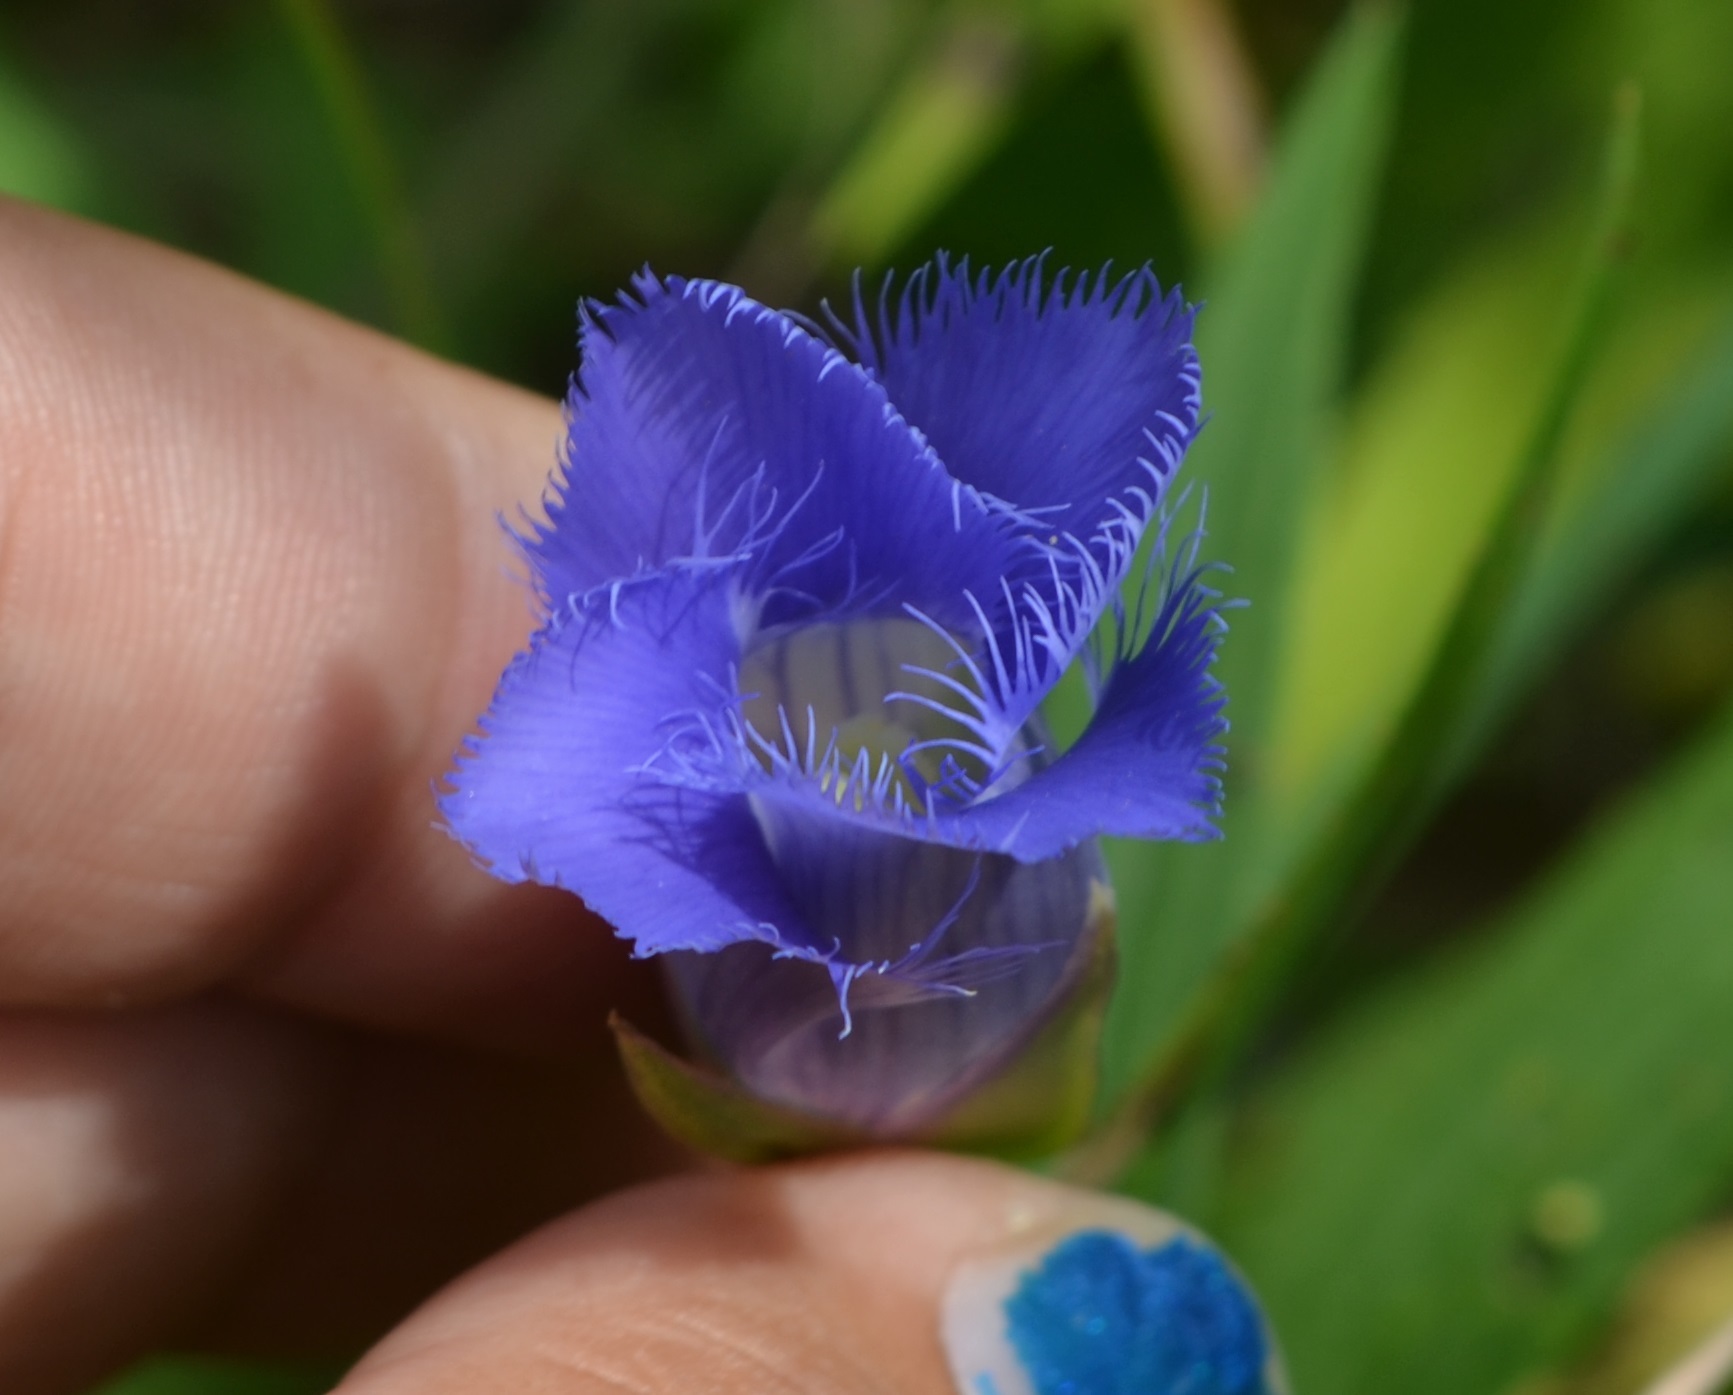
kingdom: Plantae
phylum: Tracheophyta
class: Magnoliopsida
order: Gentianales
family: Gentianaceae
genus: Gentianopsis
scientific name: Gentianopsis crinita
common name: Fringed-gentian
